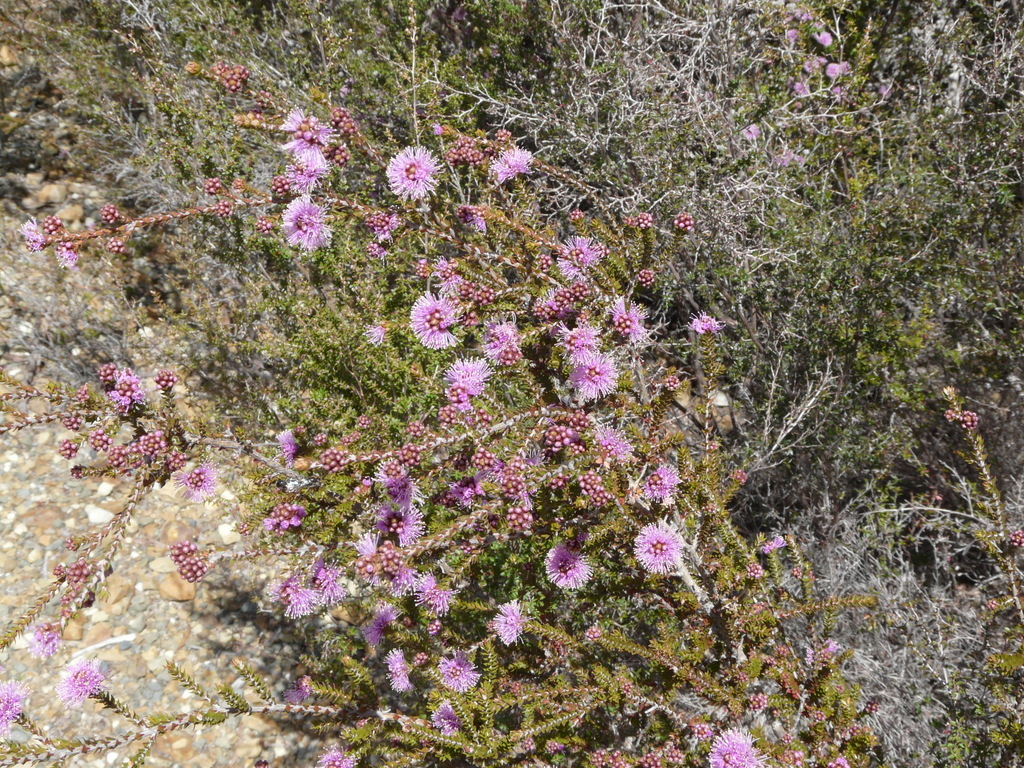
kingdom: Plantae
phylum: Tracheophyta
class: Magnoliopsida
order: Myrtales
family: Myrtaceae
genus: Melaleuca
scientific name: Melaleuca squamea
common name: Swamp melaleuca
